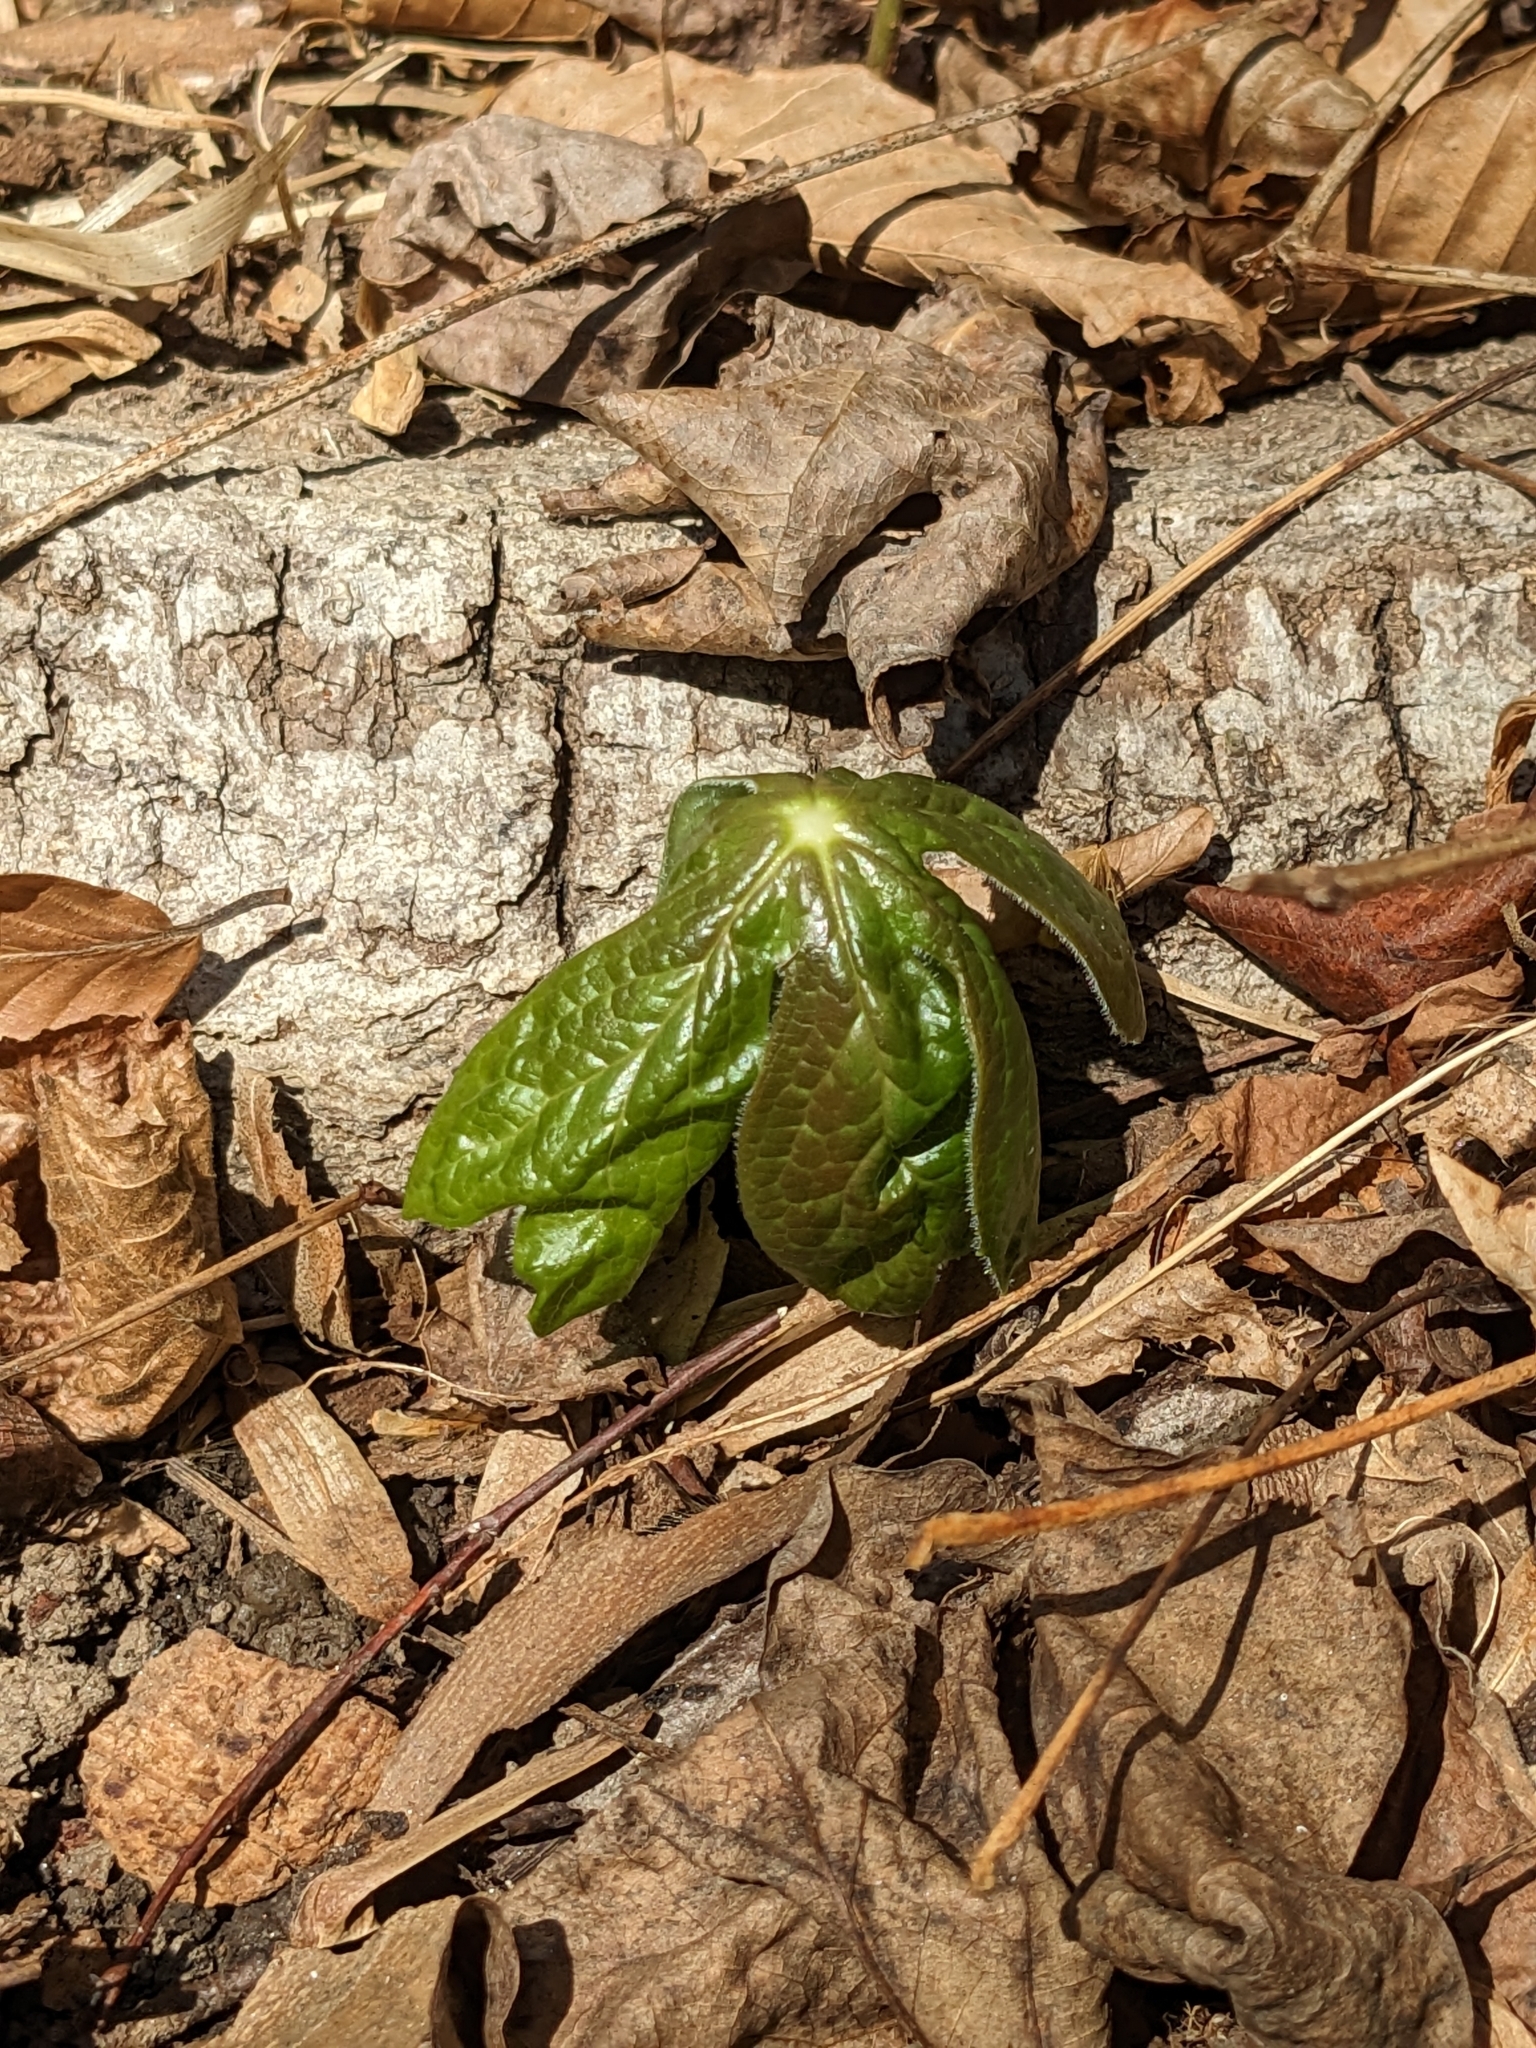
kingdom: Plantae
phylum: Tracheophyta
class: Magnoliopsida
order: Ranunculales
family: Berberidaceae
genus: Podophyllum
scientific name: Podophyllum peltatum
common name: Wild mandrake
